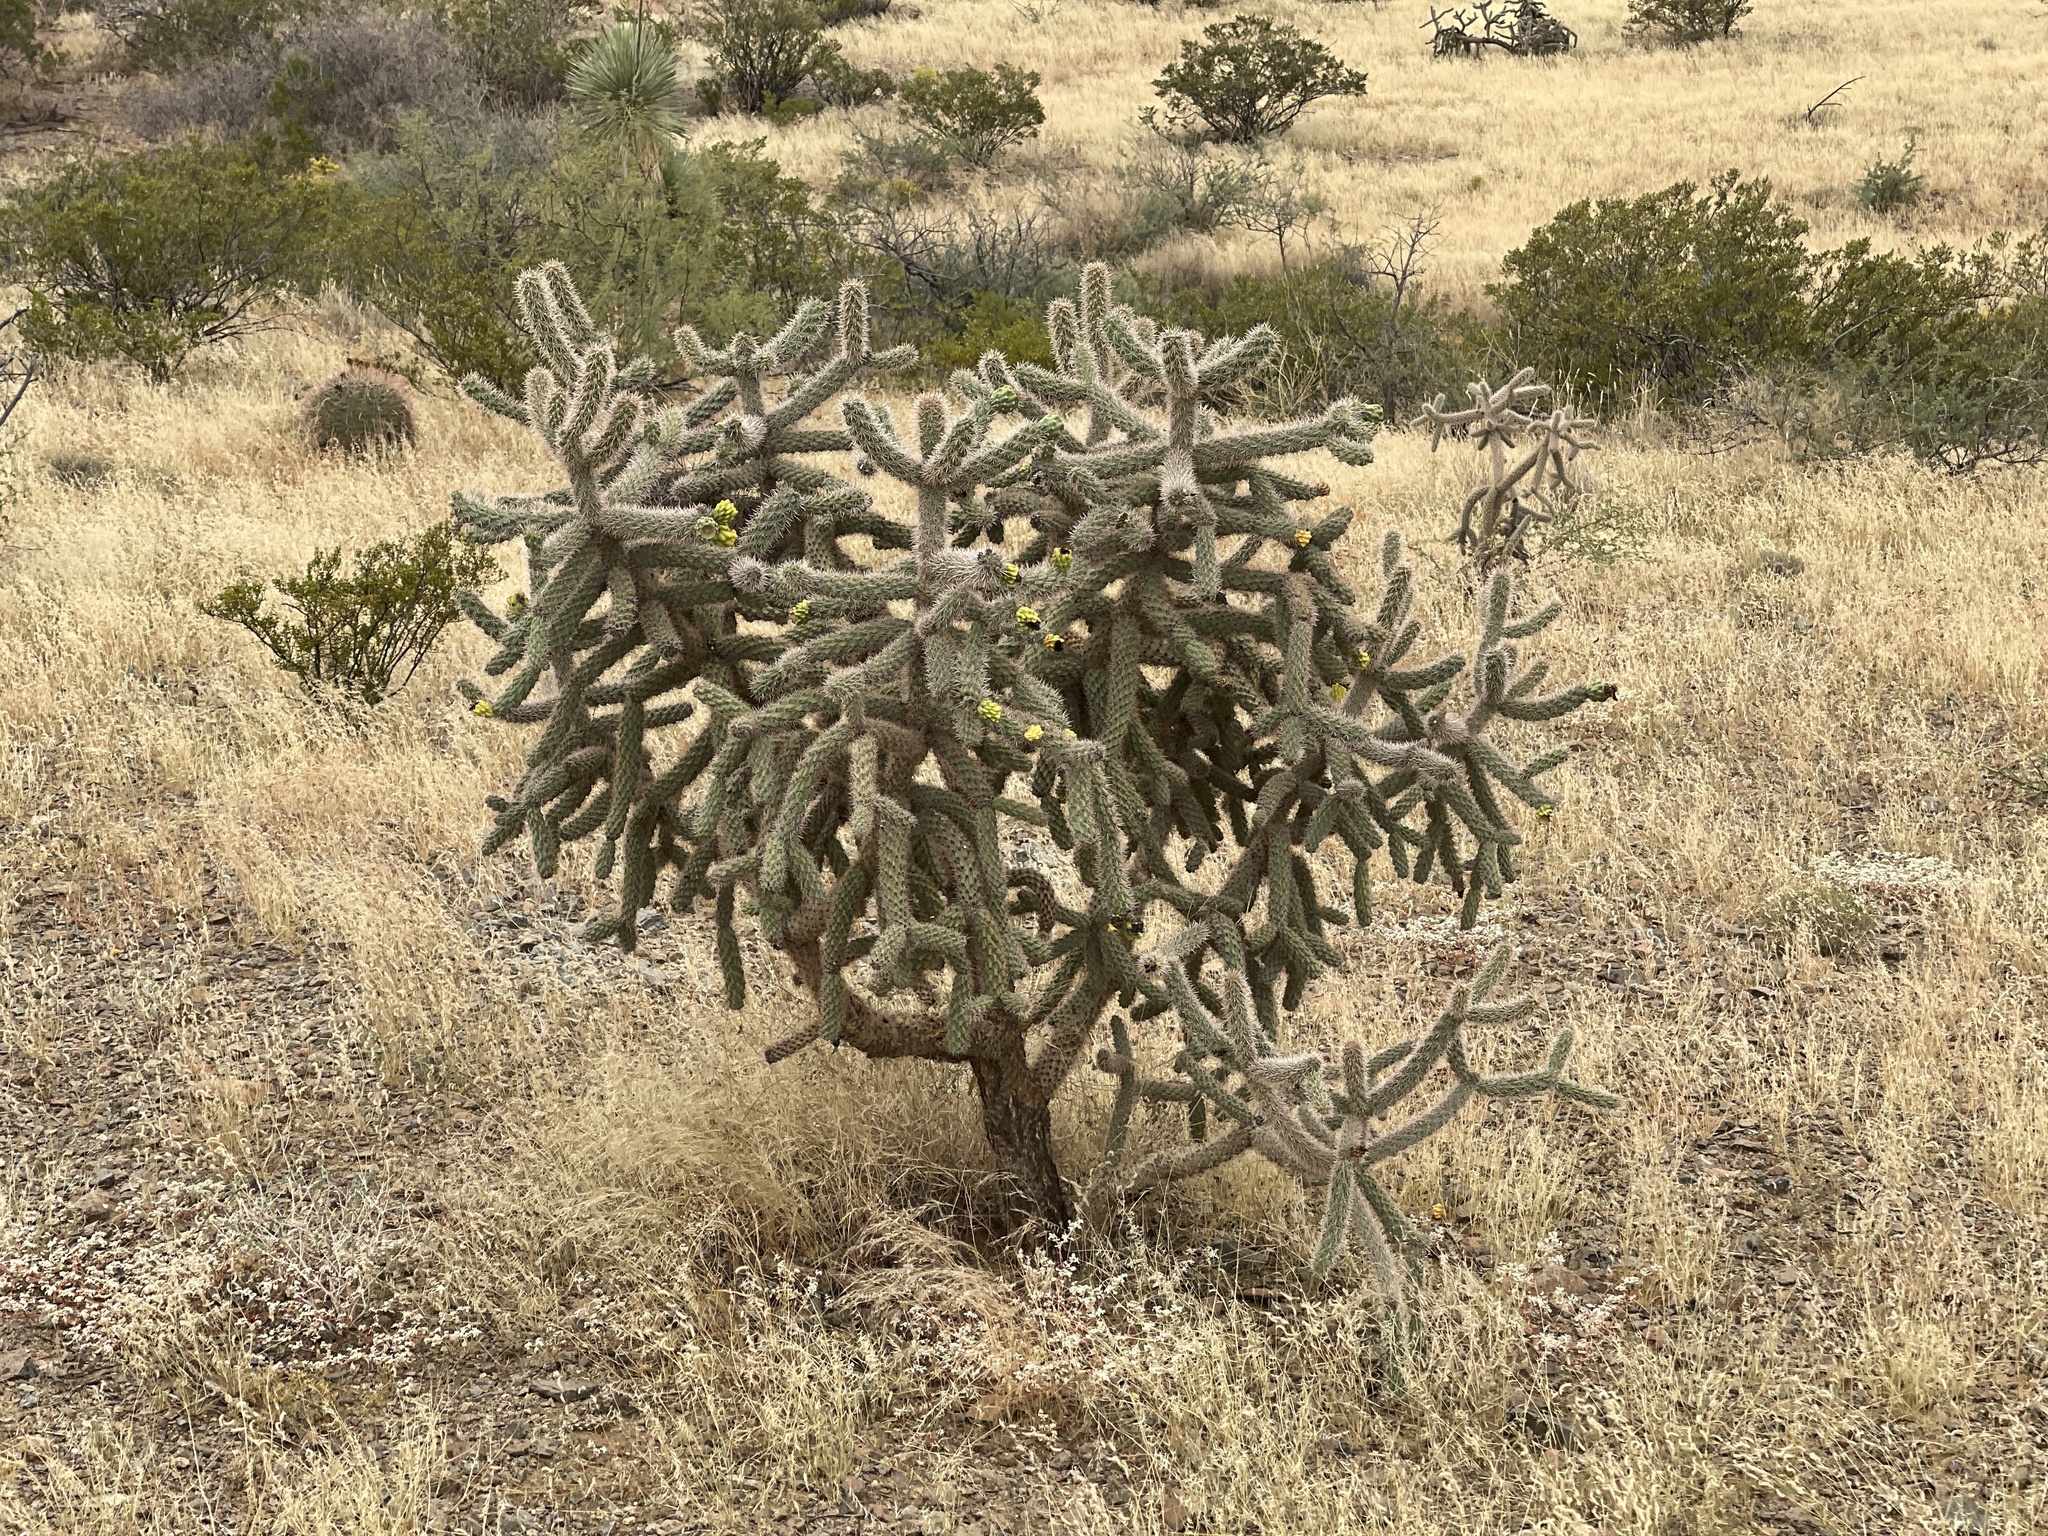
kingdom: Plantae
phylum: Tracheophyta
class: Magnoliopsida
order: Caryophyllales
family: Cactaceae
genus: Cylindropuntia
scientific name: Cylindropuntia imbricata
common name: Candelabrum cactus
